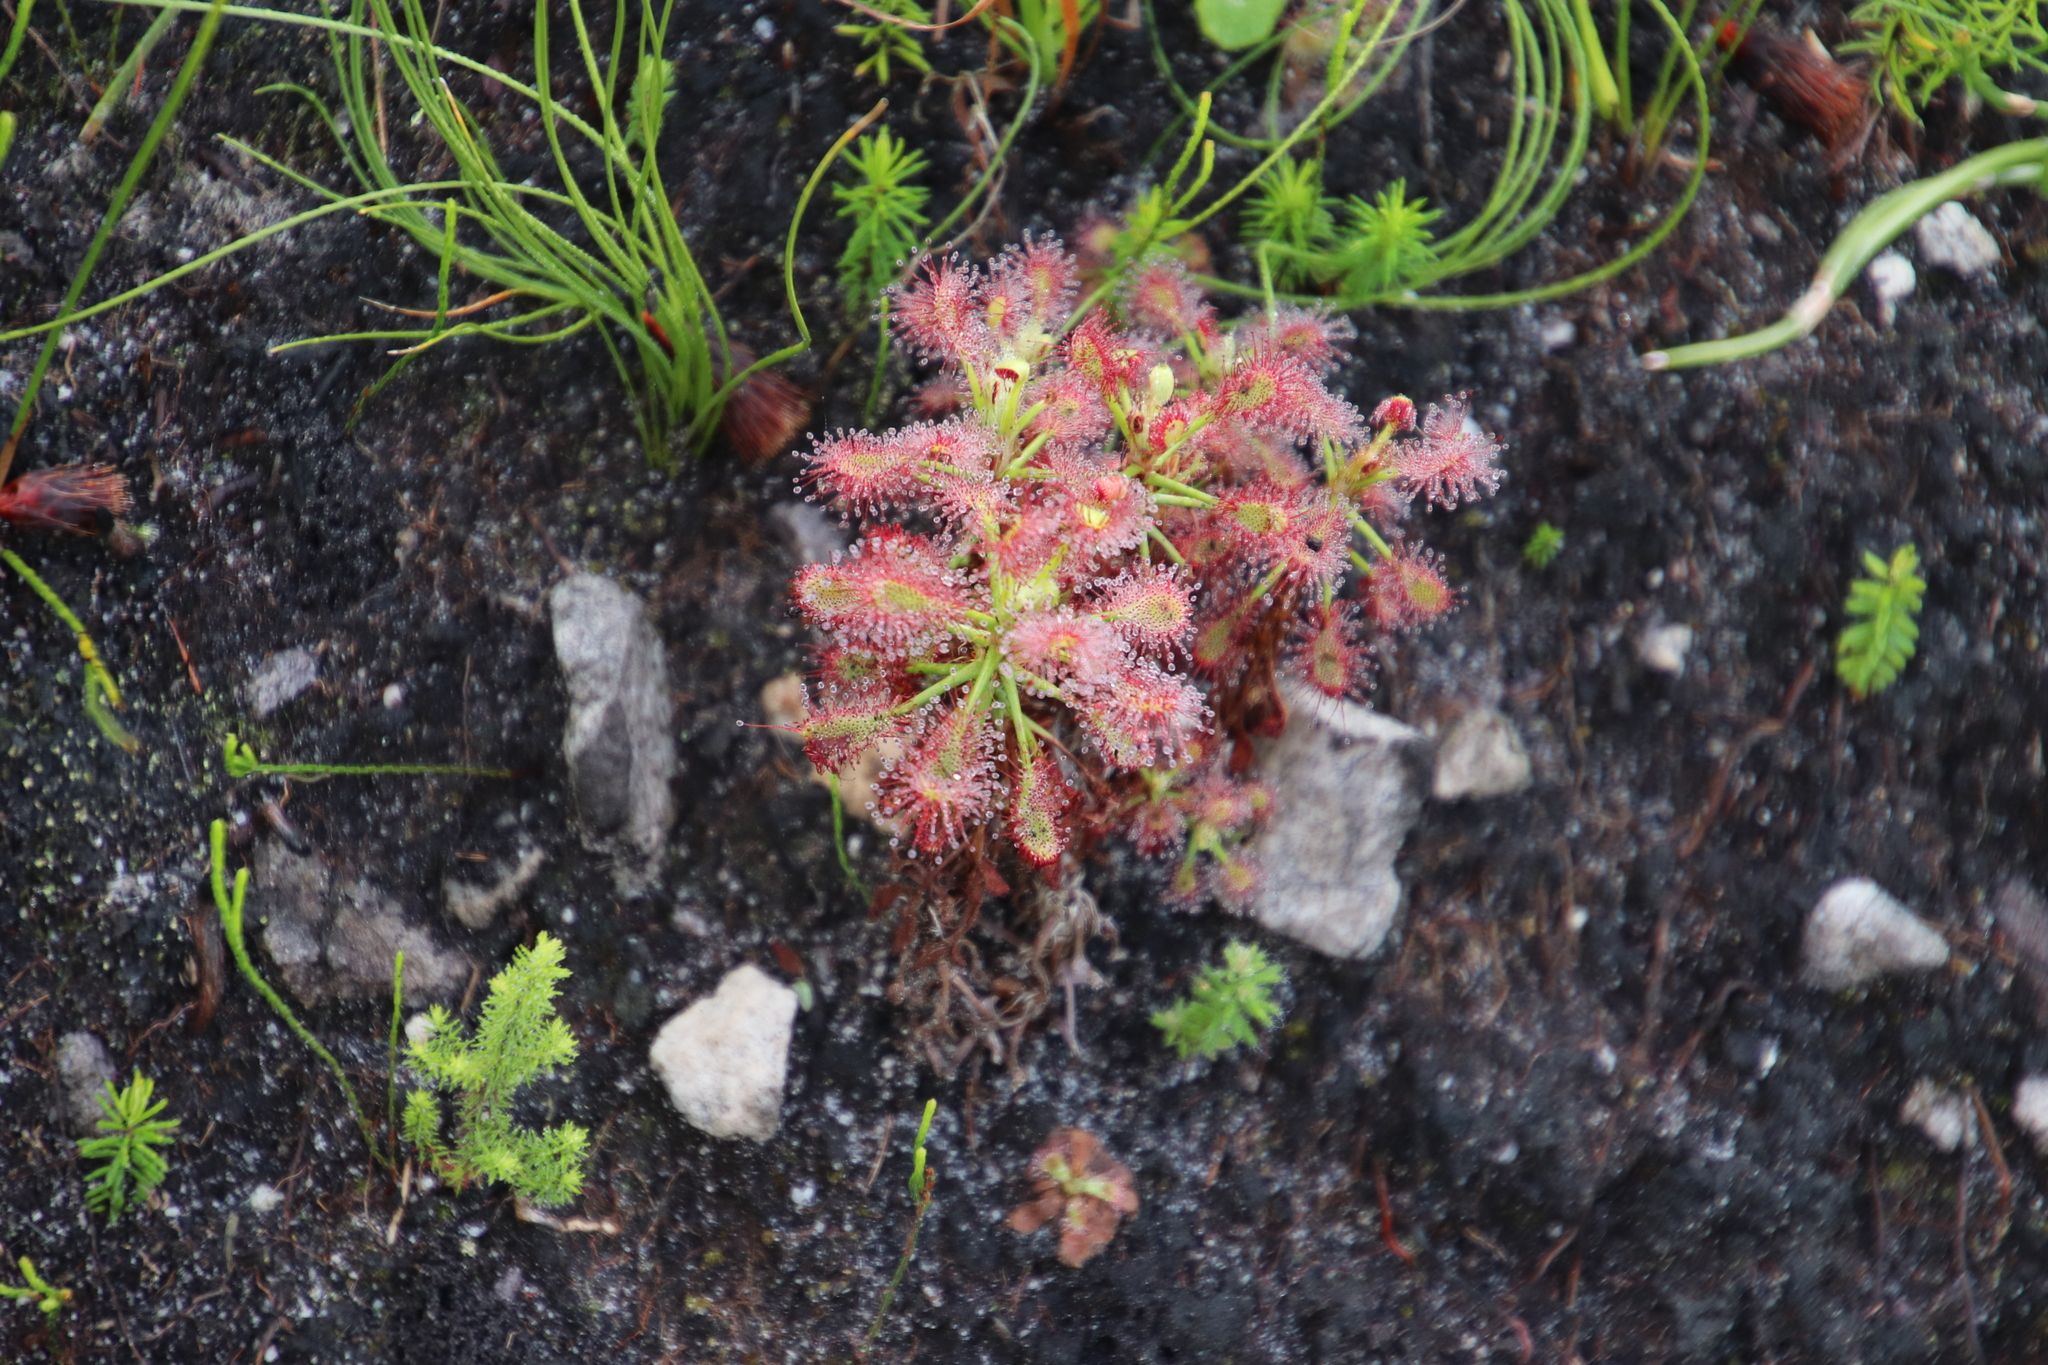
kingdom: Plantae
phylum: Tracheophyta
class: Magnoliopsida
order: Caryophyllales
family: Droseraceae
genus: Drosera
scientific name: Drosera glabripes
